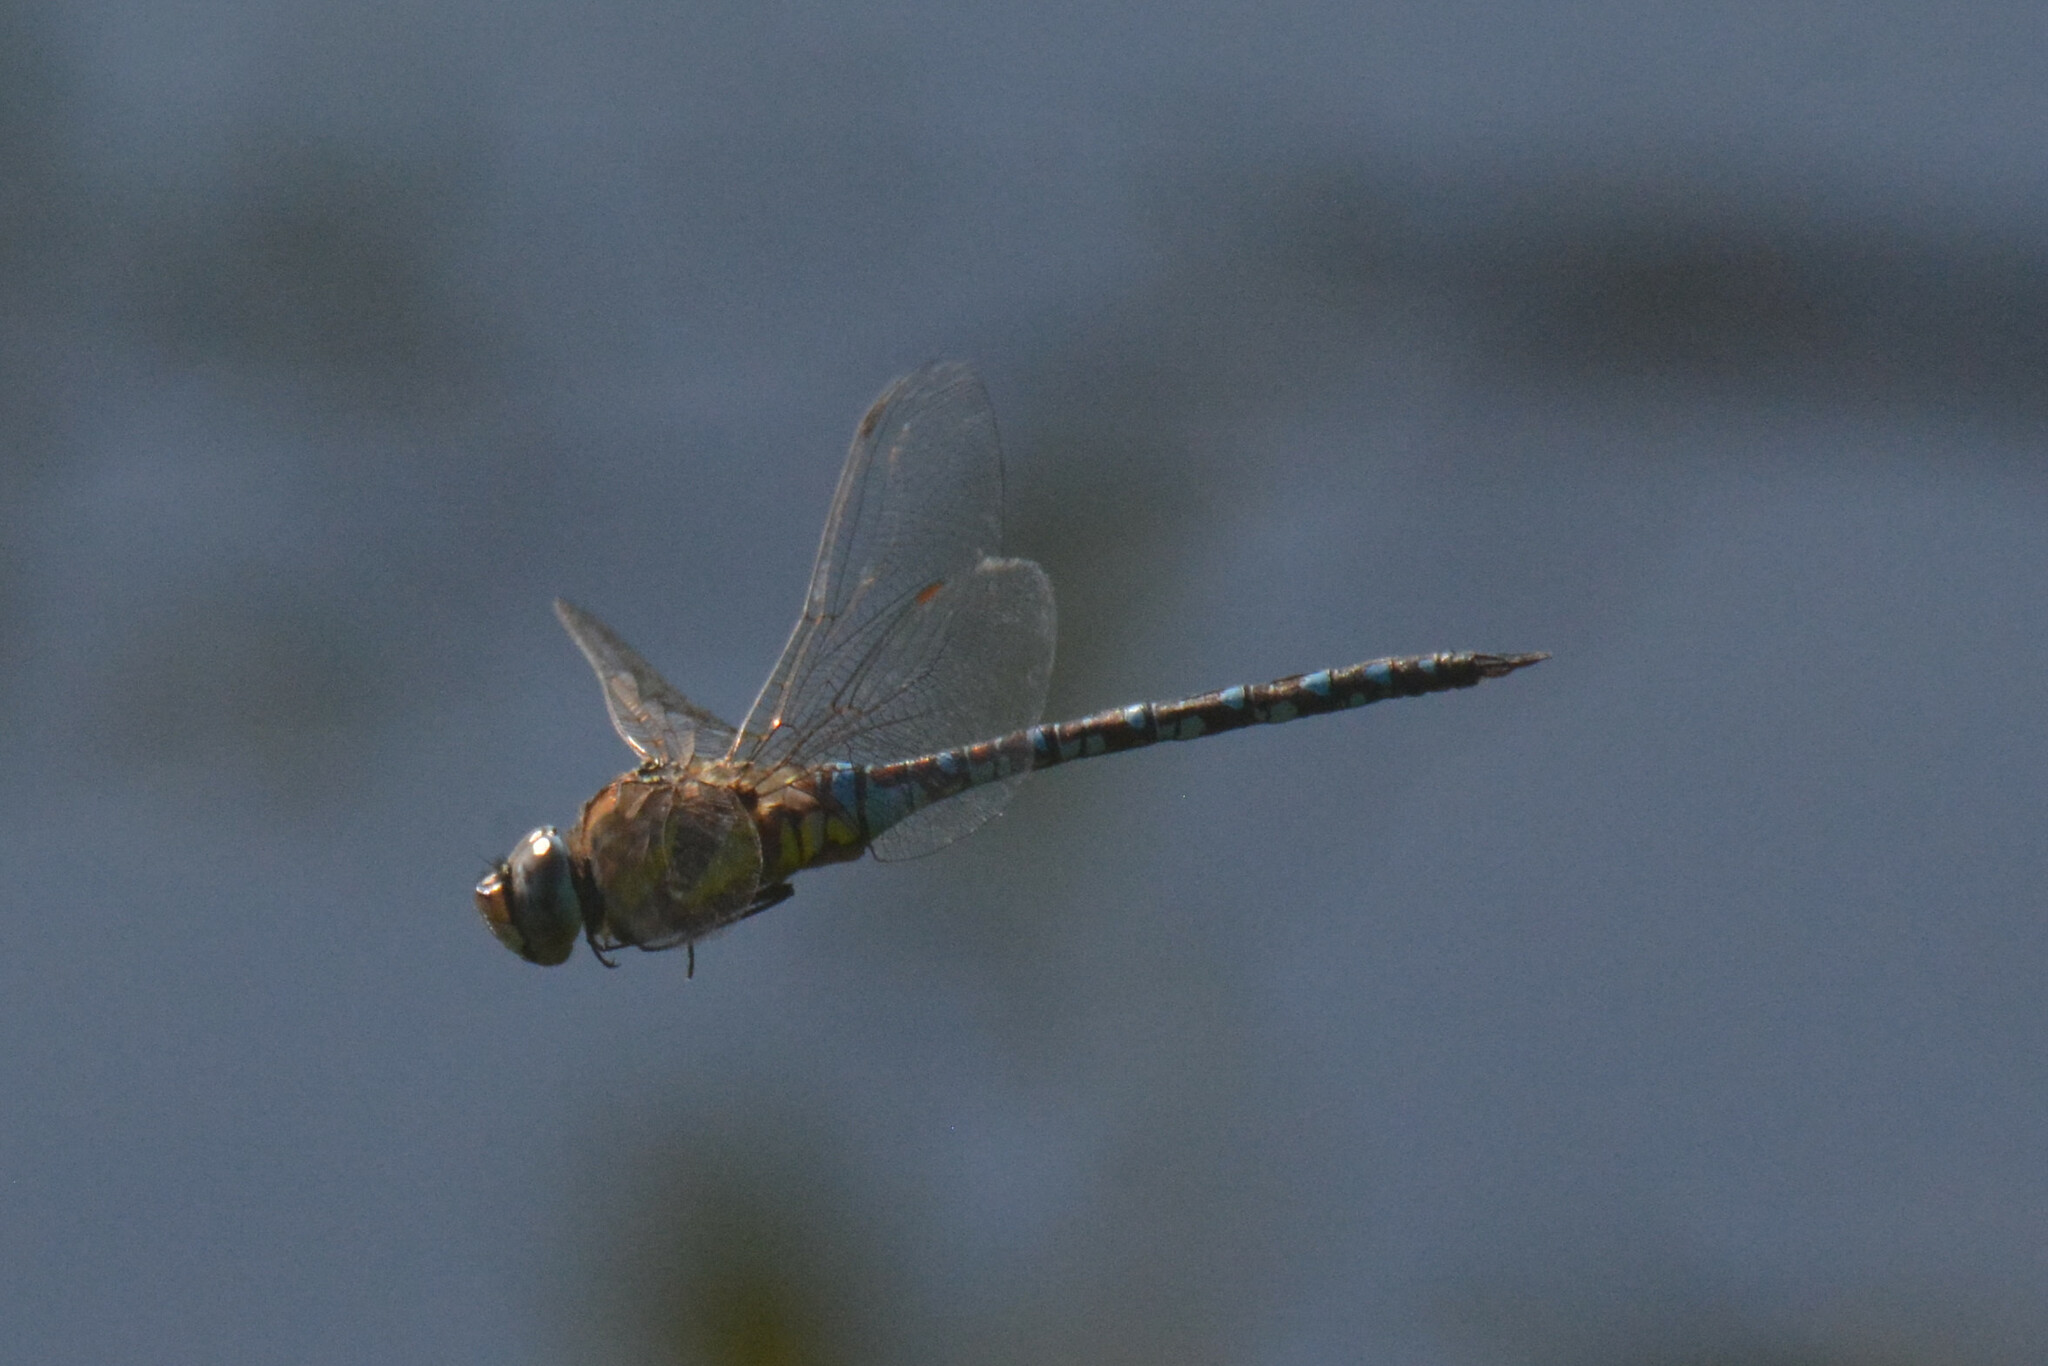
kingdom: Animalia
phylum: Arthropoda
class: Insecta
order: Odonata
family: Aeshnidae
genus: Aeshna
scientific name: Aeshna mixta
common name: Migrant hawker
